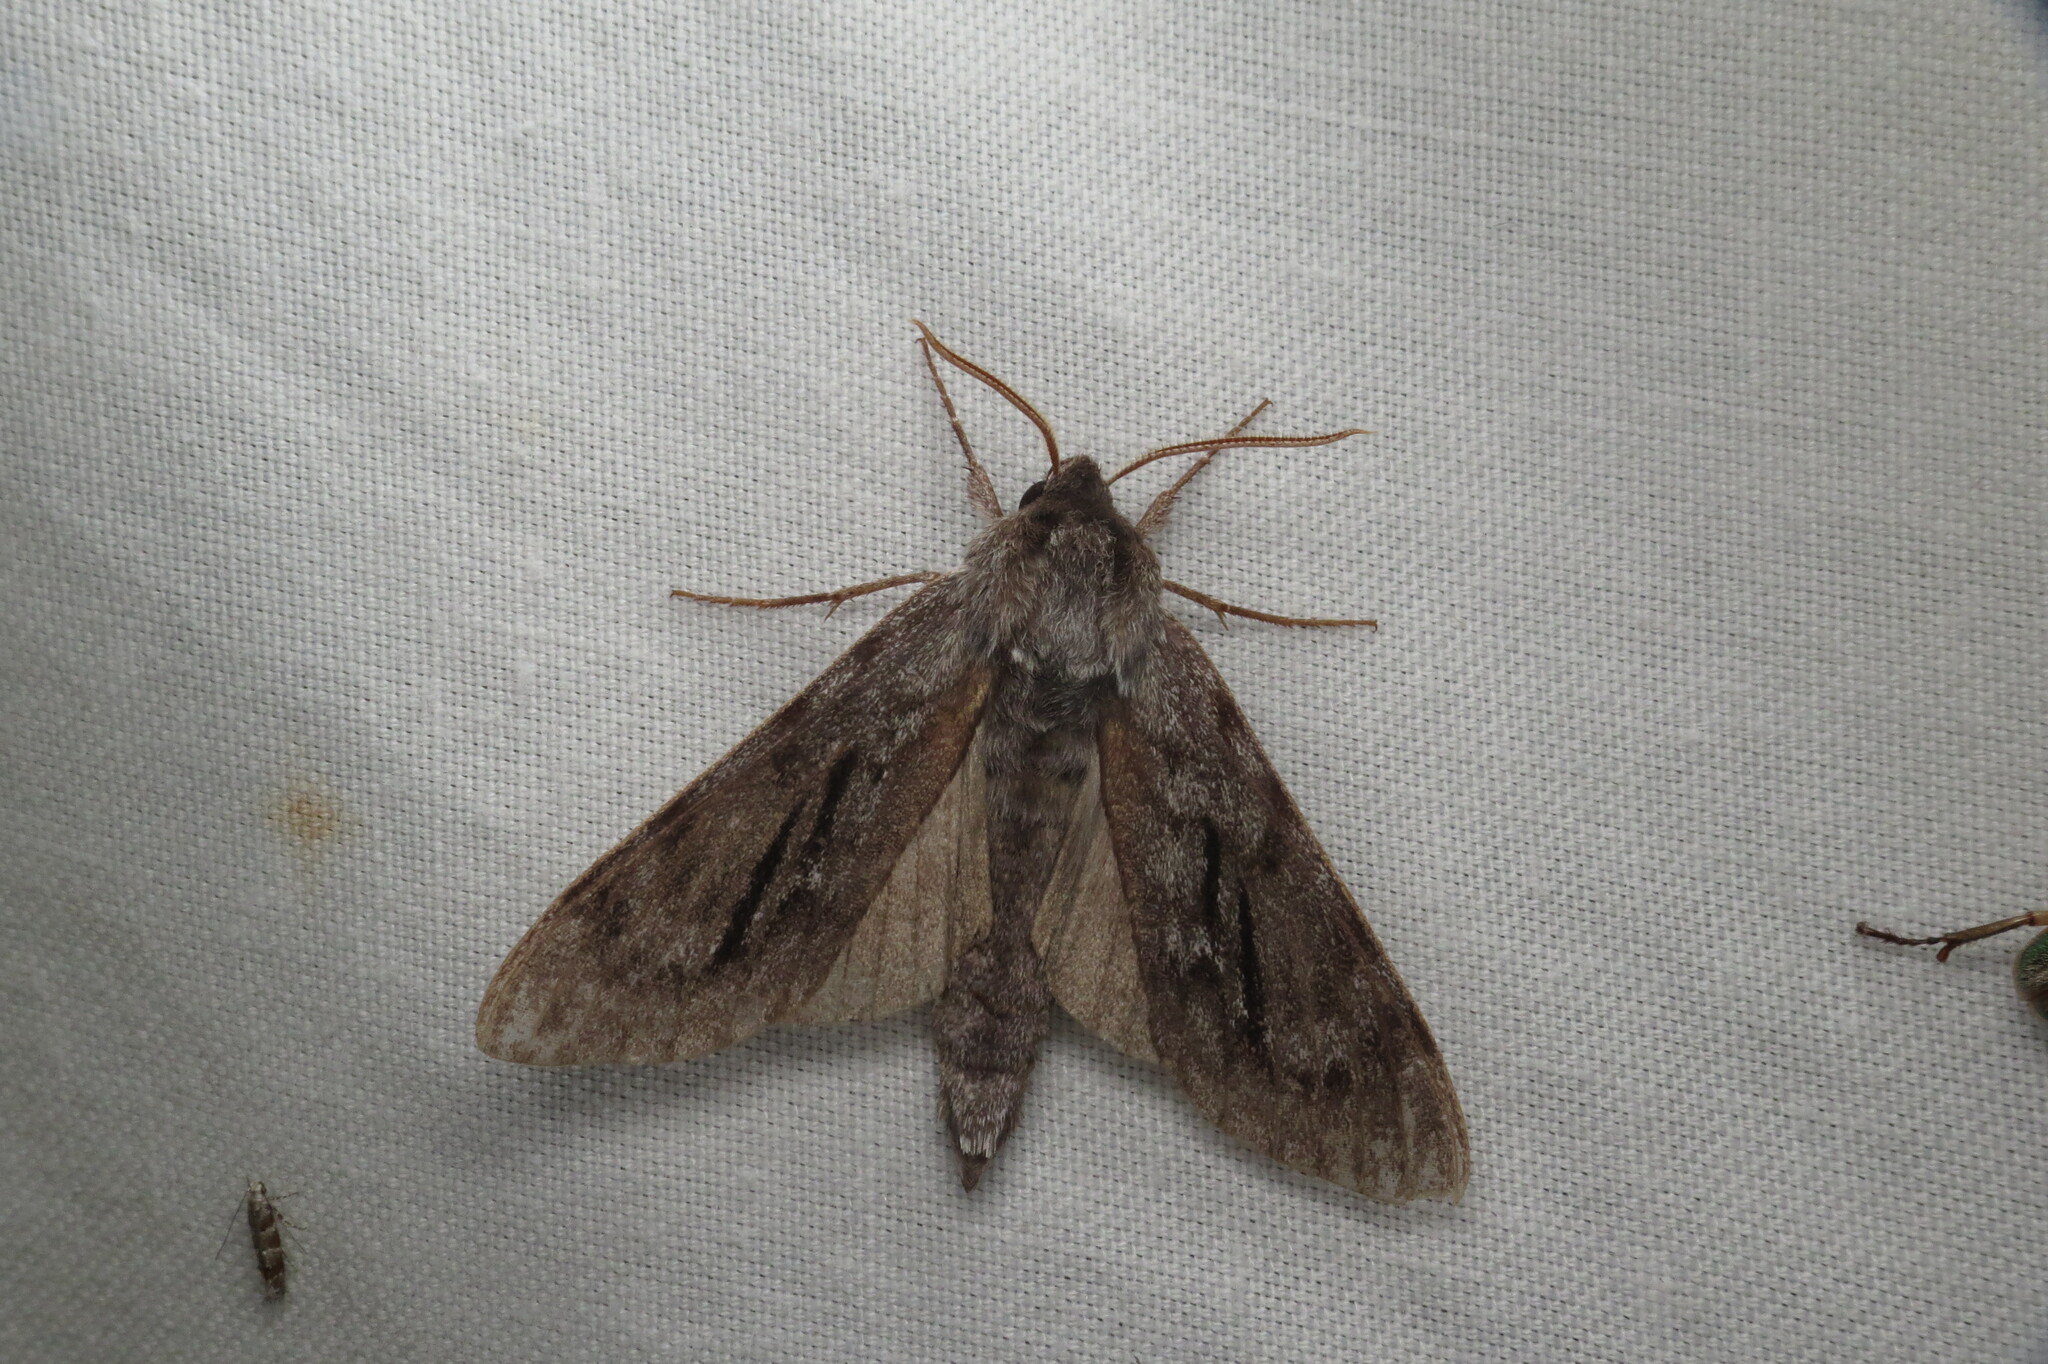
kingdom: Animalia
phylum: Arthropoda
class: Insecta
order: Lepidoptera
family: Sphingidae
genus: Lapara
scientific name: Lapara coniferarum
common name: Southern pine sphinx
